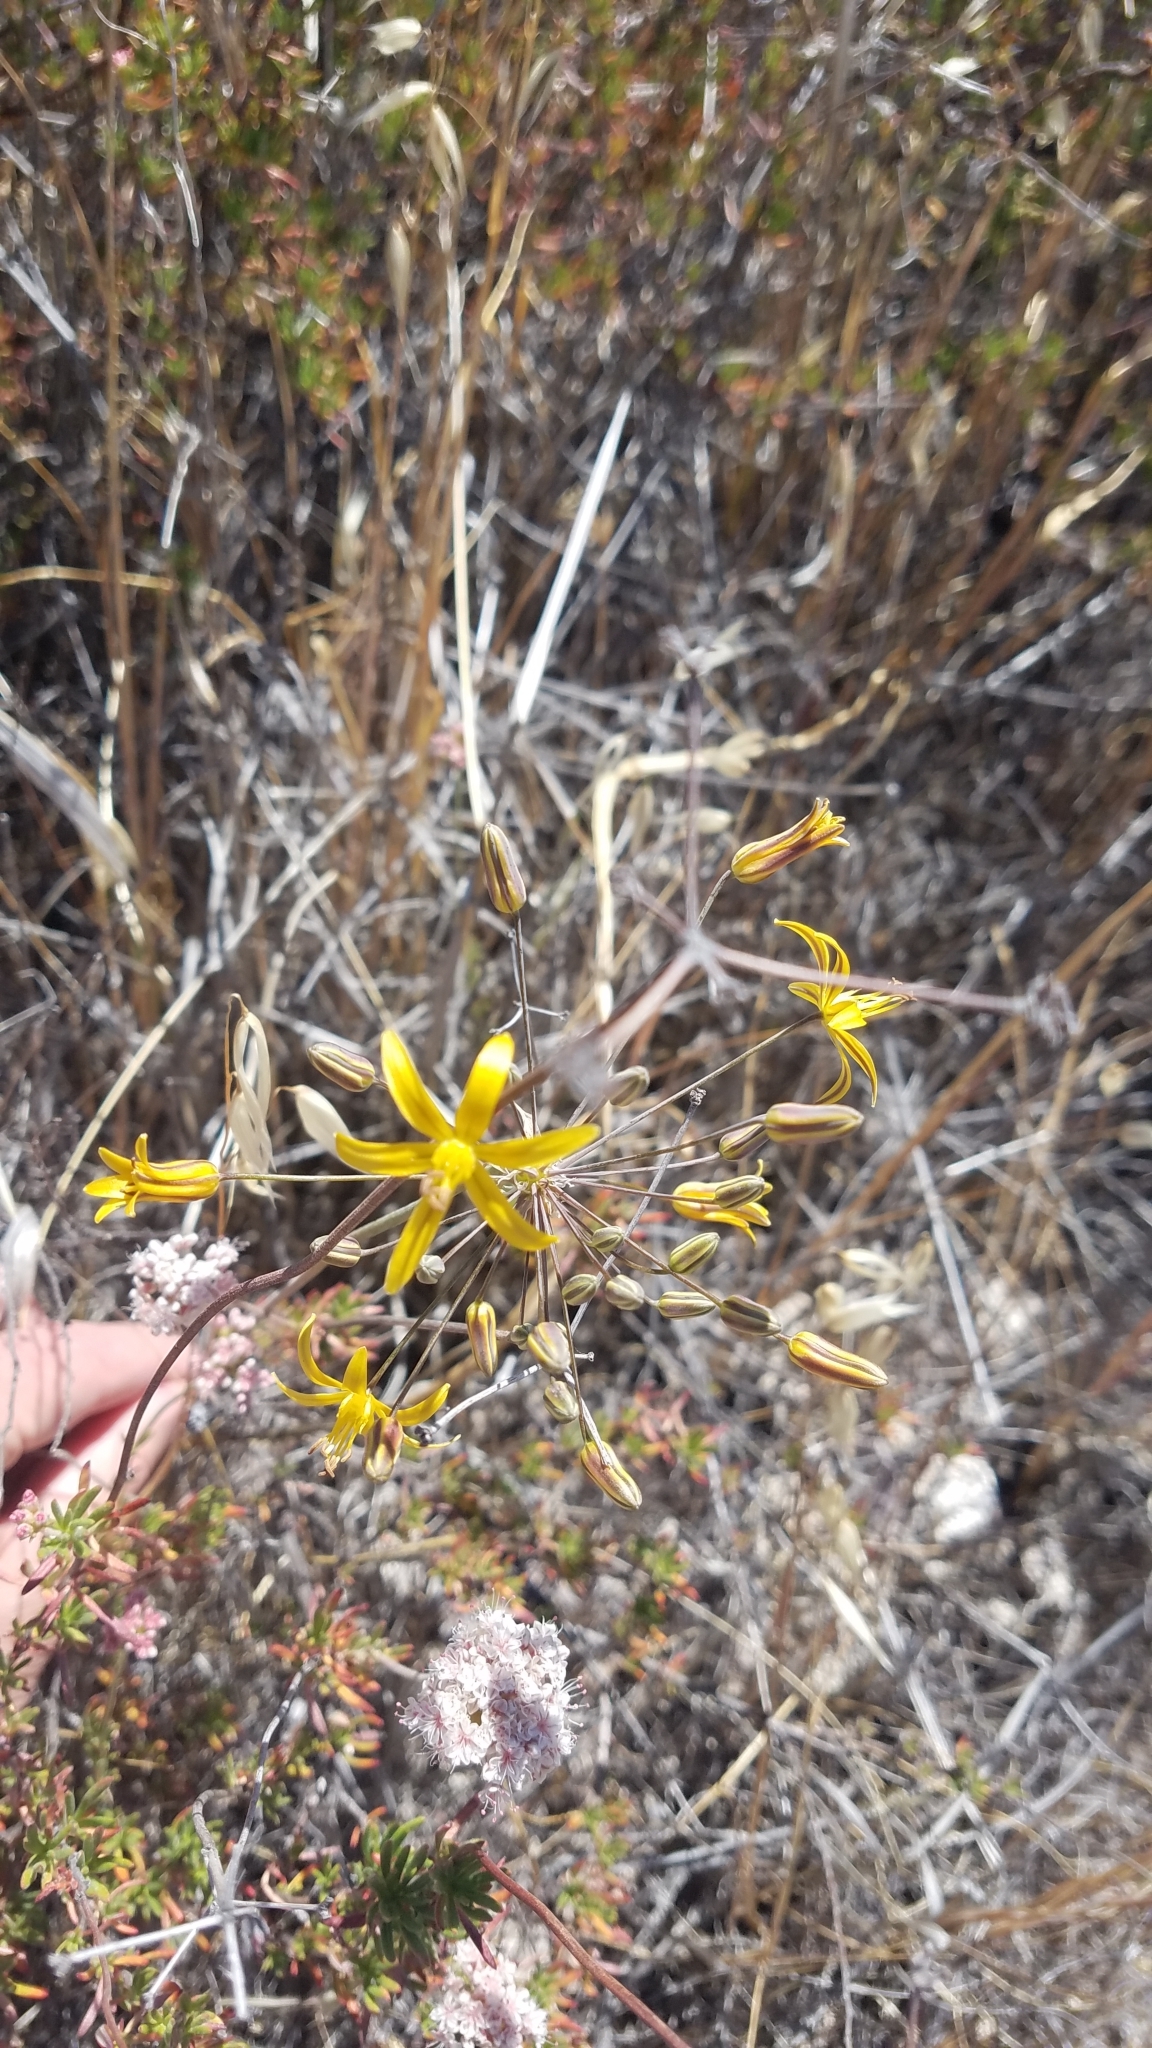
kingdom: Plantae
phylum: Tracheophyta
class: Liliopsida
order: Asparagales
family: Asparagaceae
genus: Bloomeria
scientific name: Bloomeria crocea
